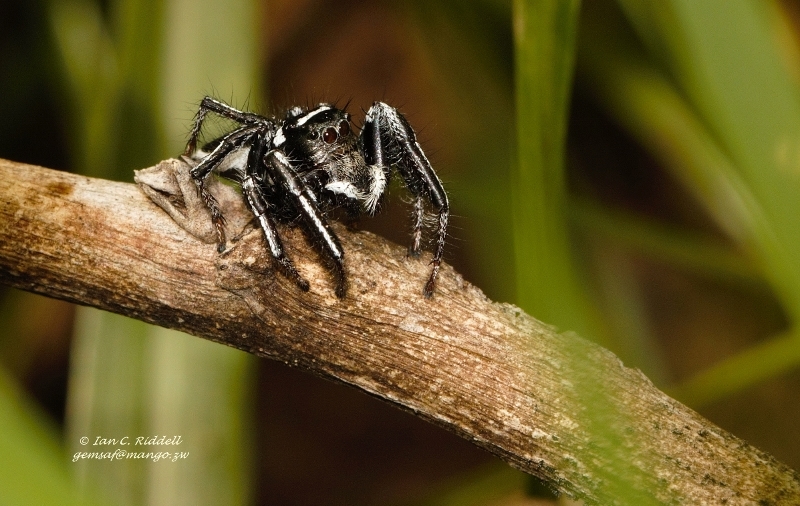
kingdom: Animalia
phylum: Arthropoda
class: Arachnida
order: Araneae
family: Salticidae
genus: Hyllus
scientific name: Hyllus argyrotoxus
